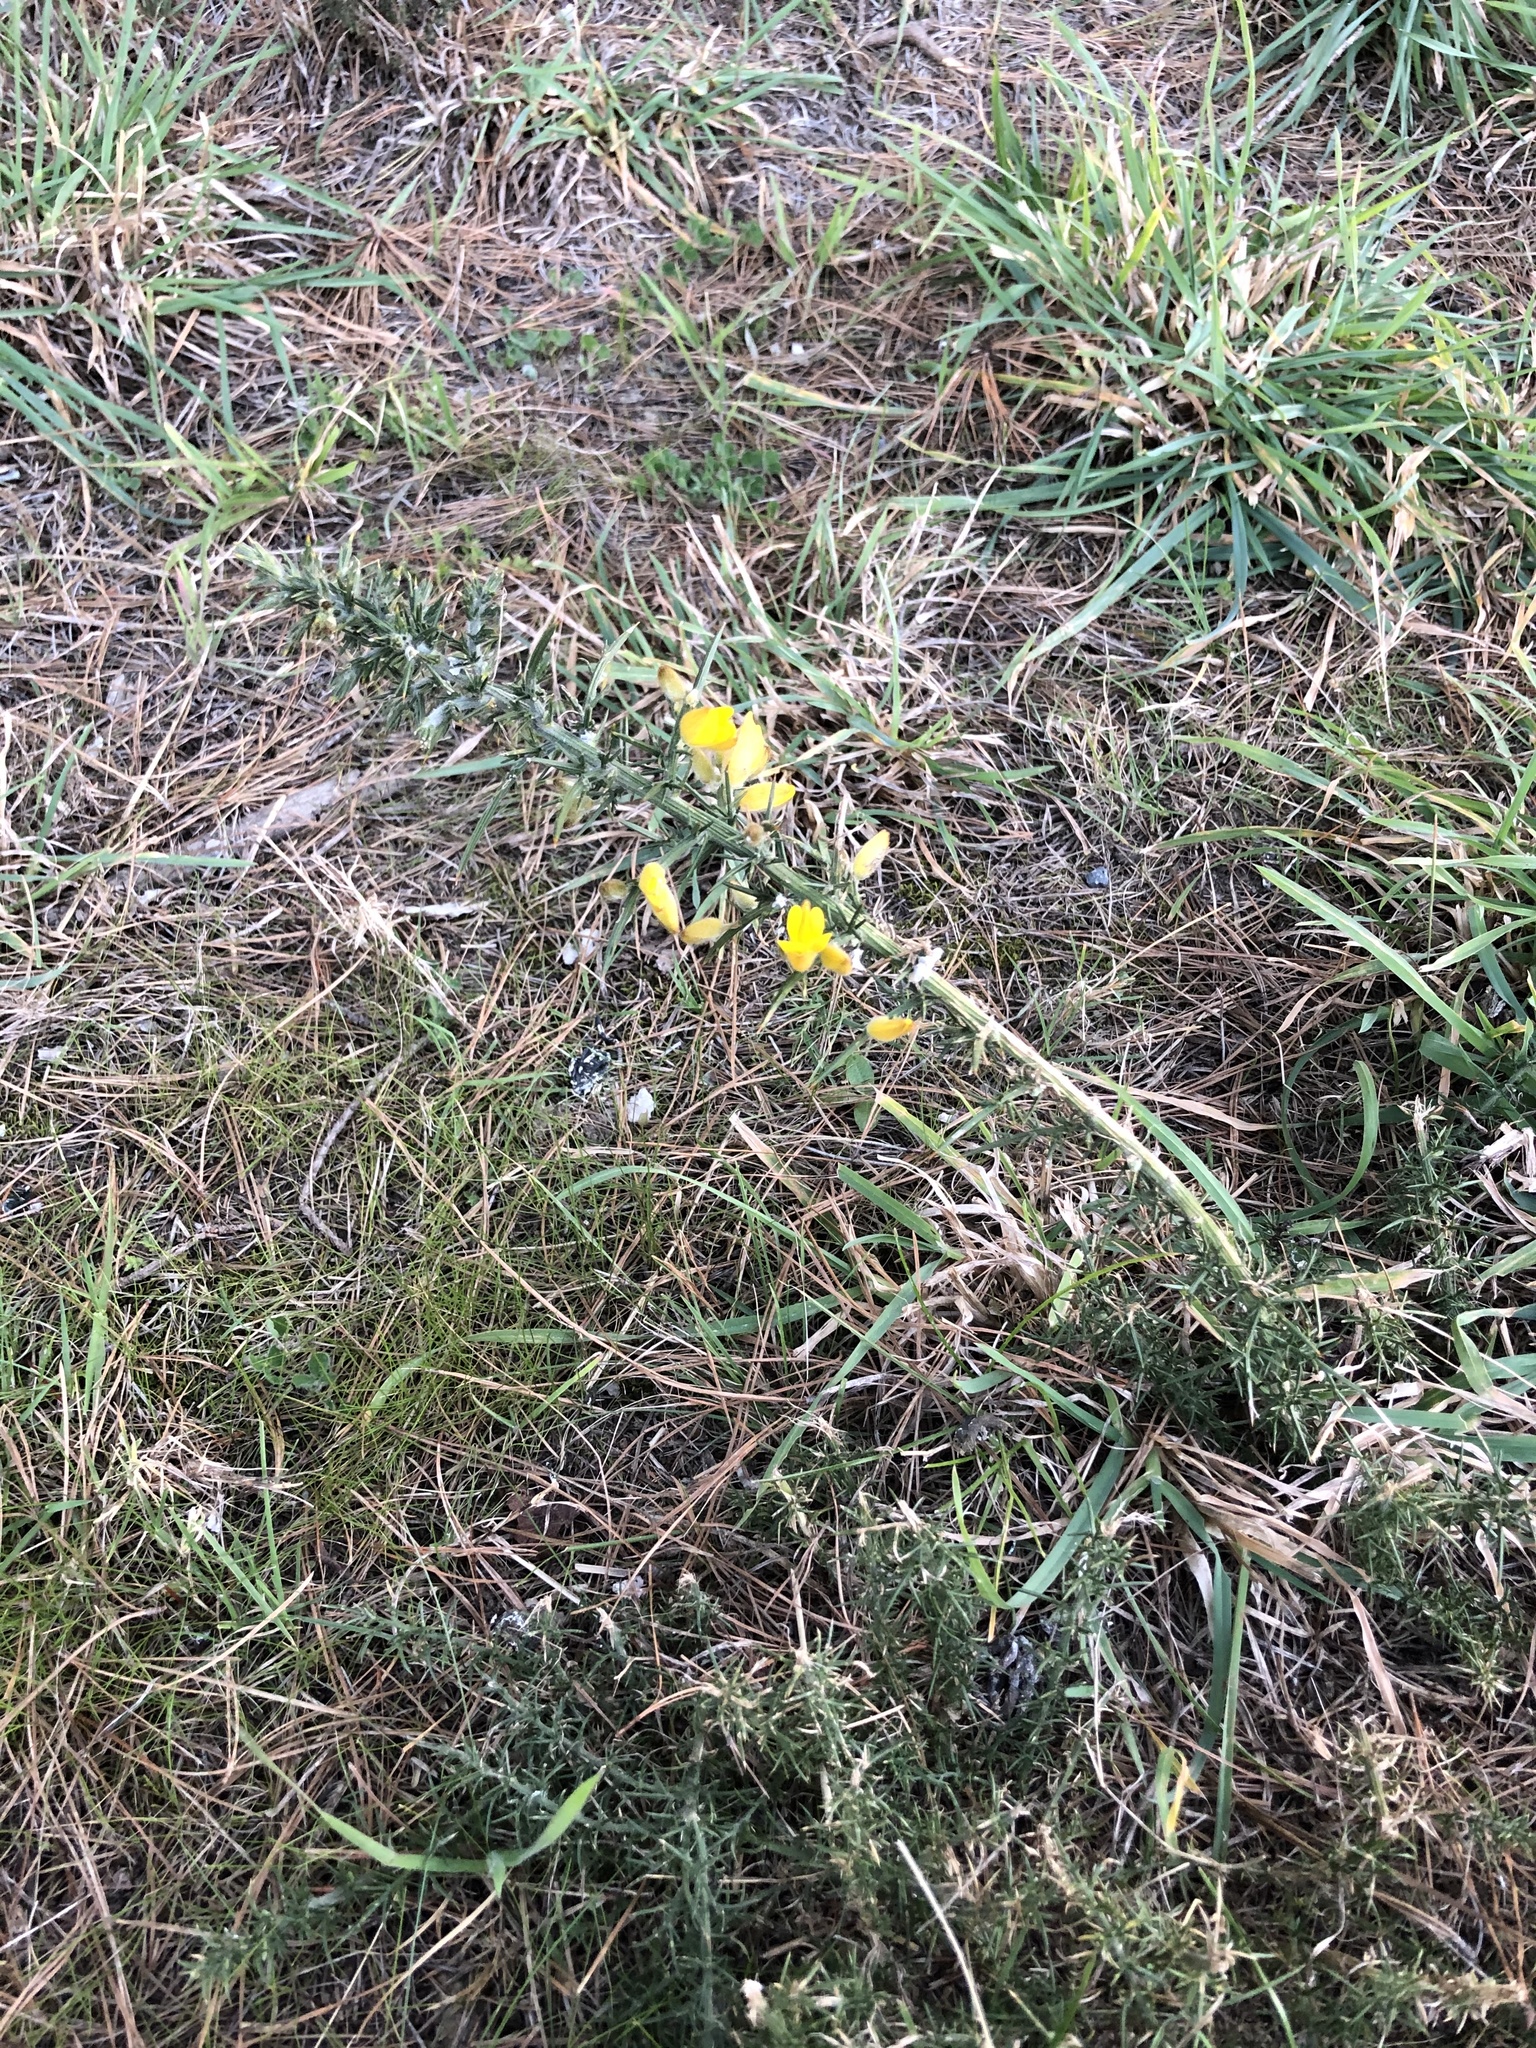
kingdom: Plantae
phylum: Tracheophyta
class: Magnoliopsida
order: Fabales
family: Fabaceae
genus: Ulex
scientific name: Ulex europaeus
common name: Common gorse
